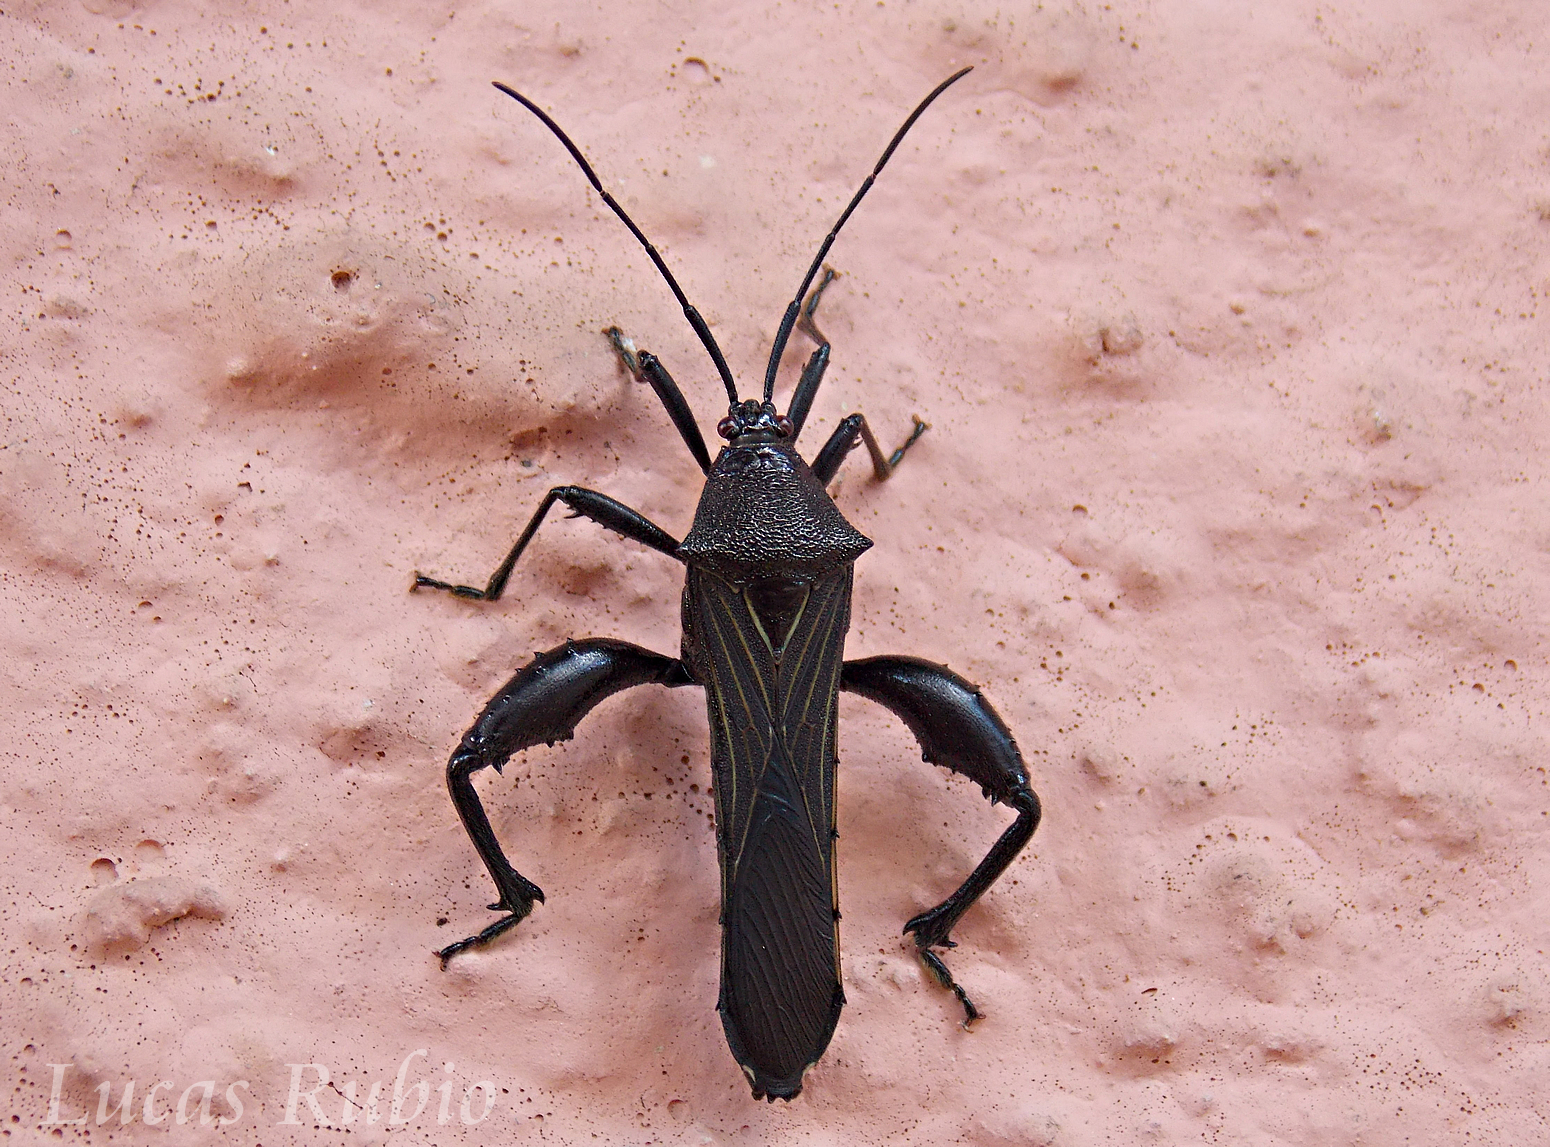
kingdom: Animalia
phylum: Arthropoda
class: Insecta
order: Hemiptera
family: Coreidae
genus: Grammopoecilus
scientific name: Grammopoecilus angustatus
